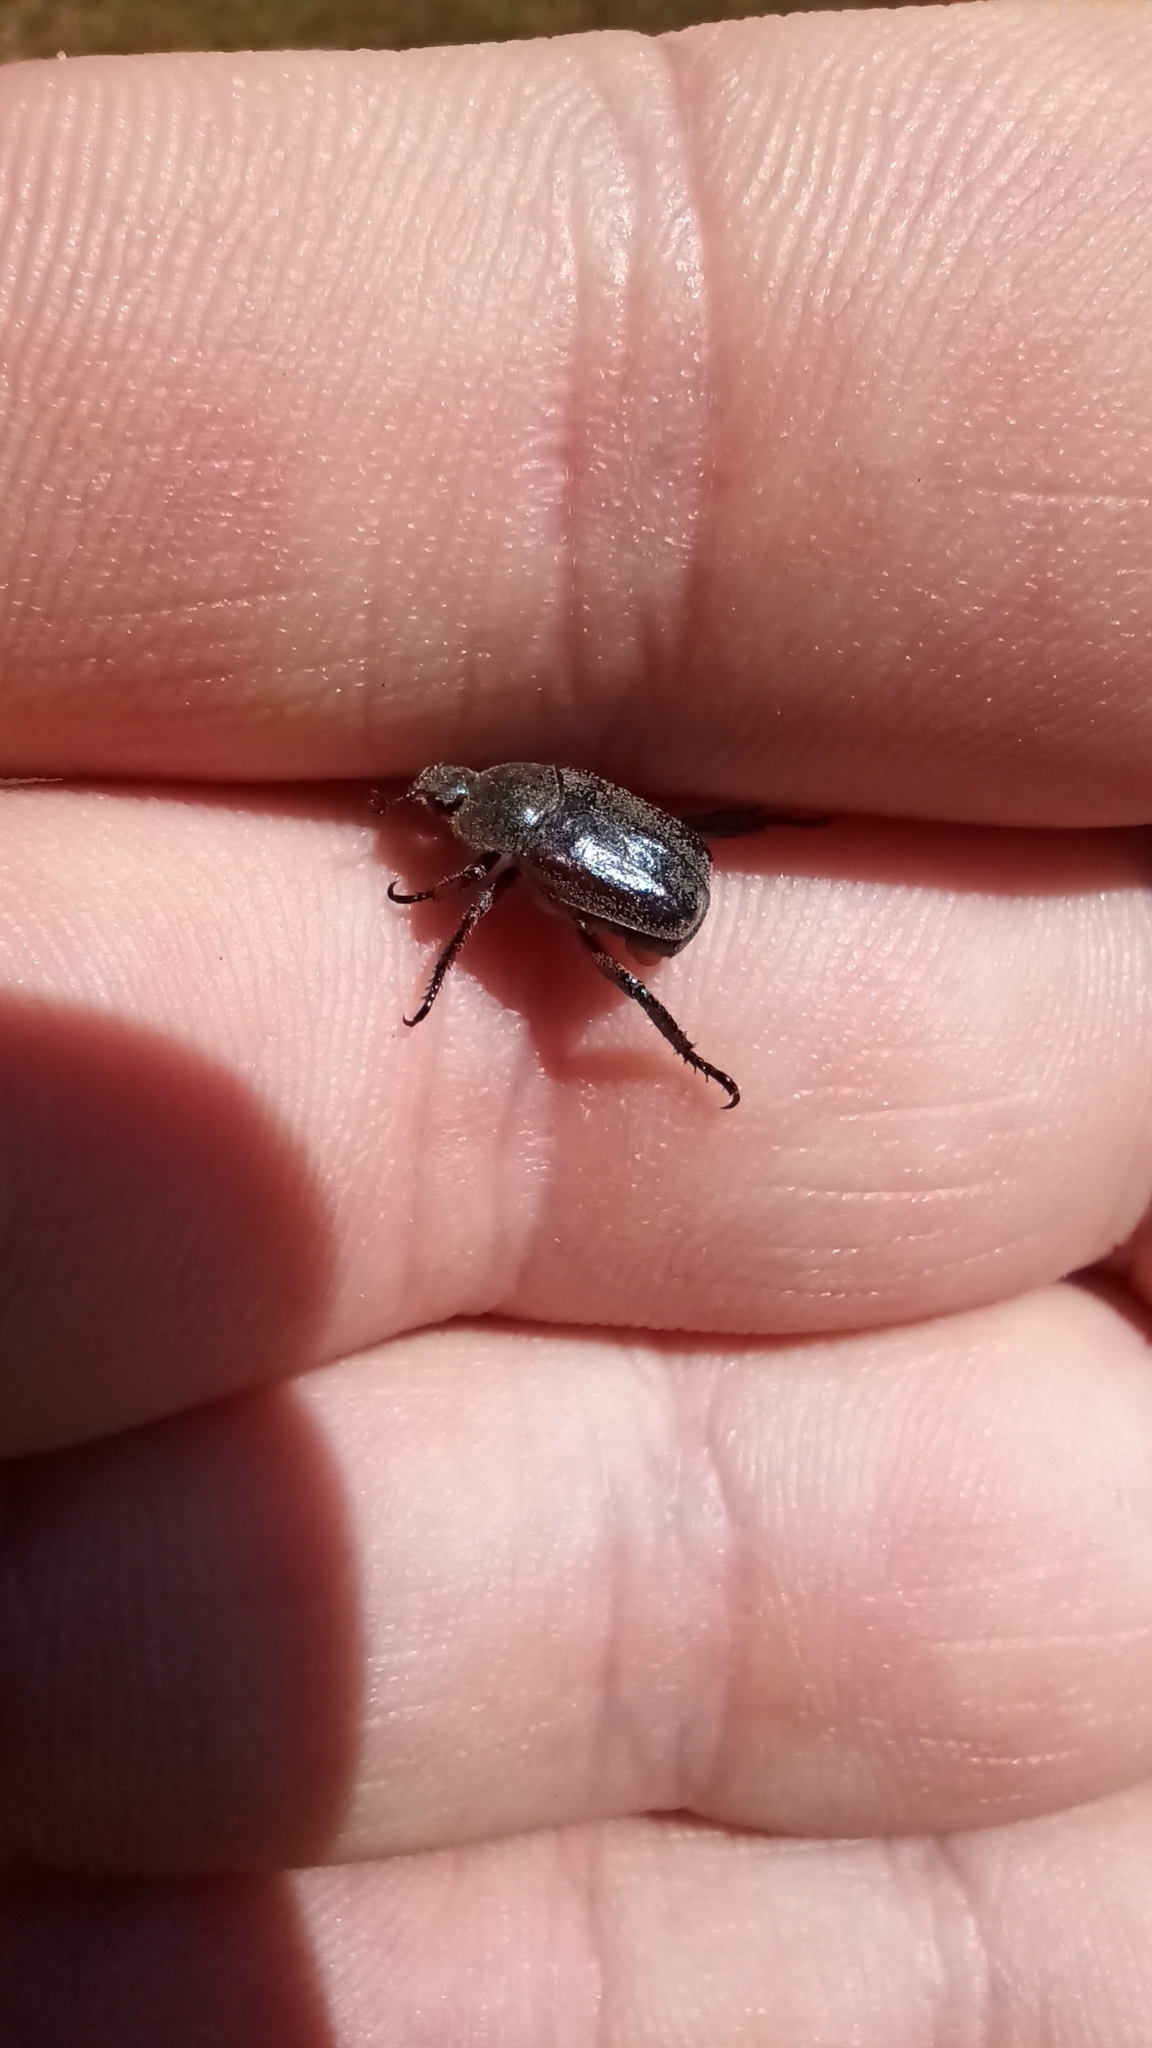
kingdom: Animalia
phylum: Arthropoda
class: Insecta
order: Coleoptera
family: Scarabaeidae
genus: Hoplia
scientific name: Hoplia philanthus
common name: Welsh chafer
